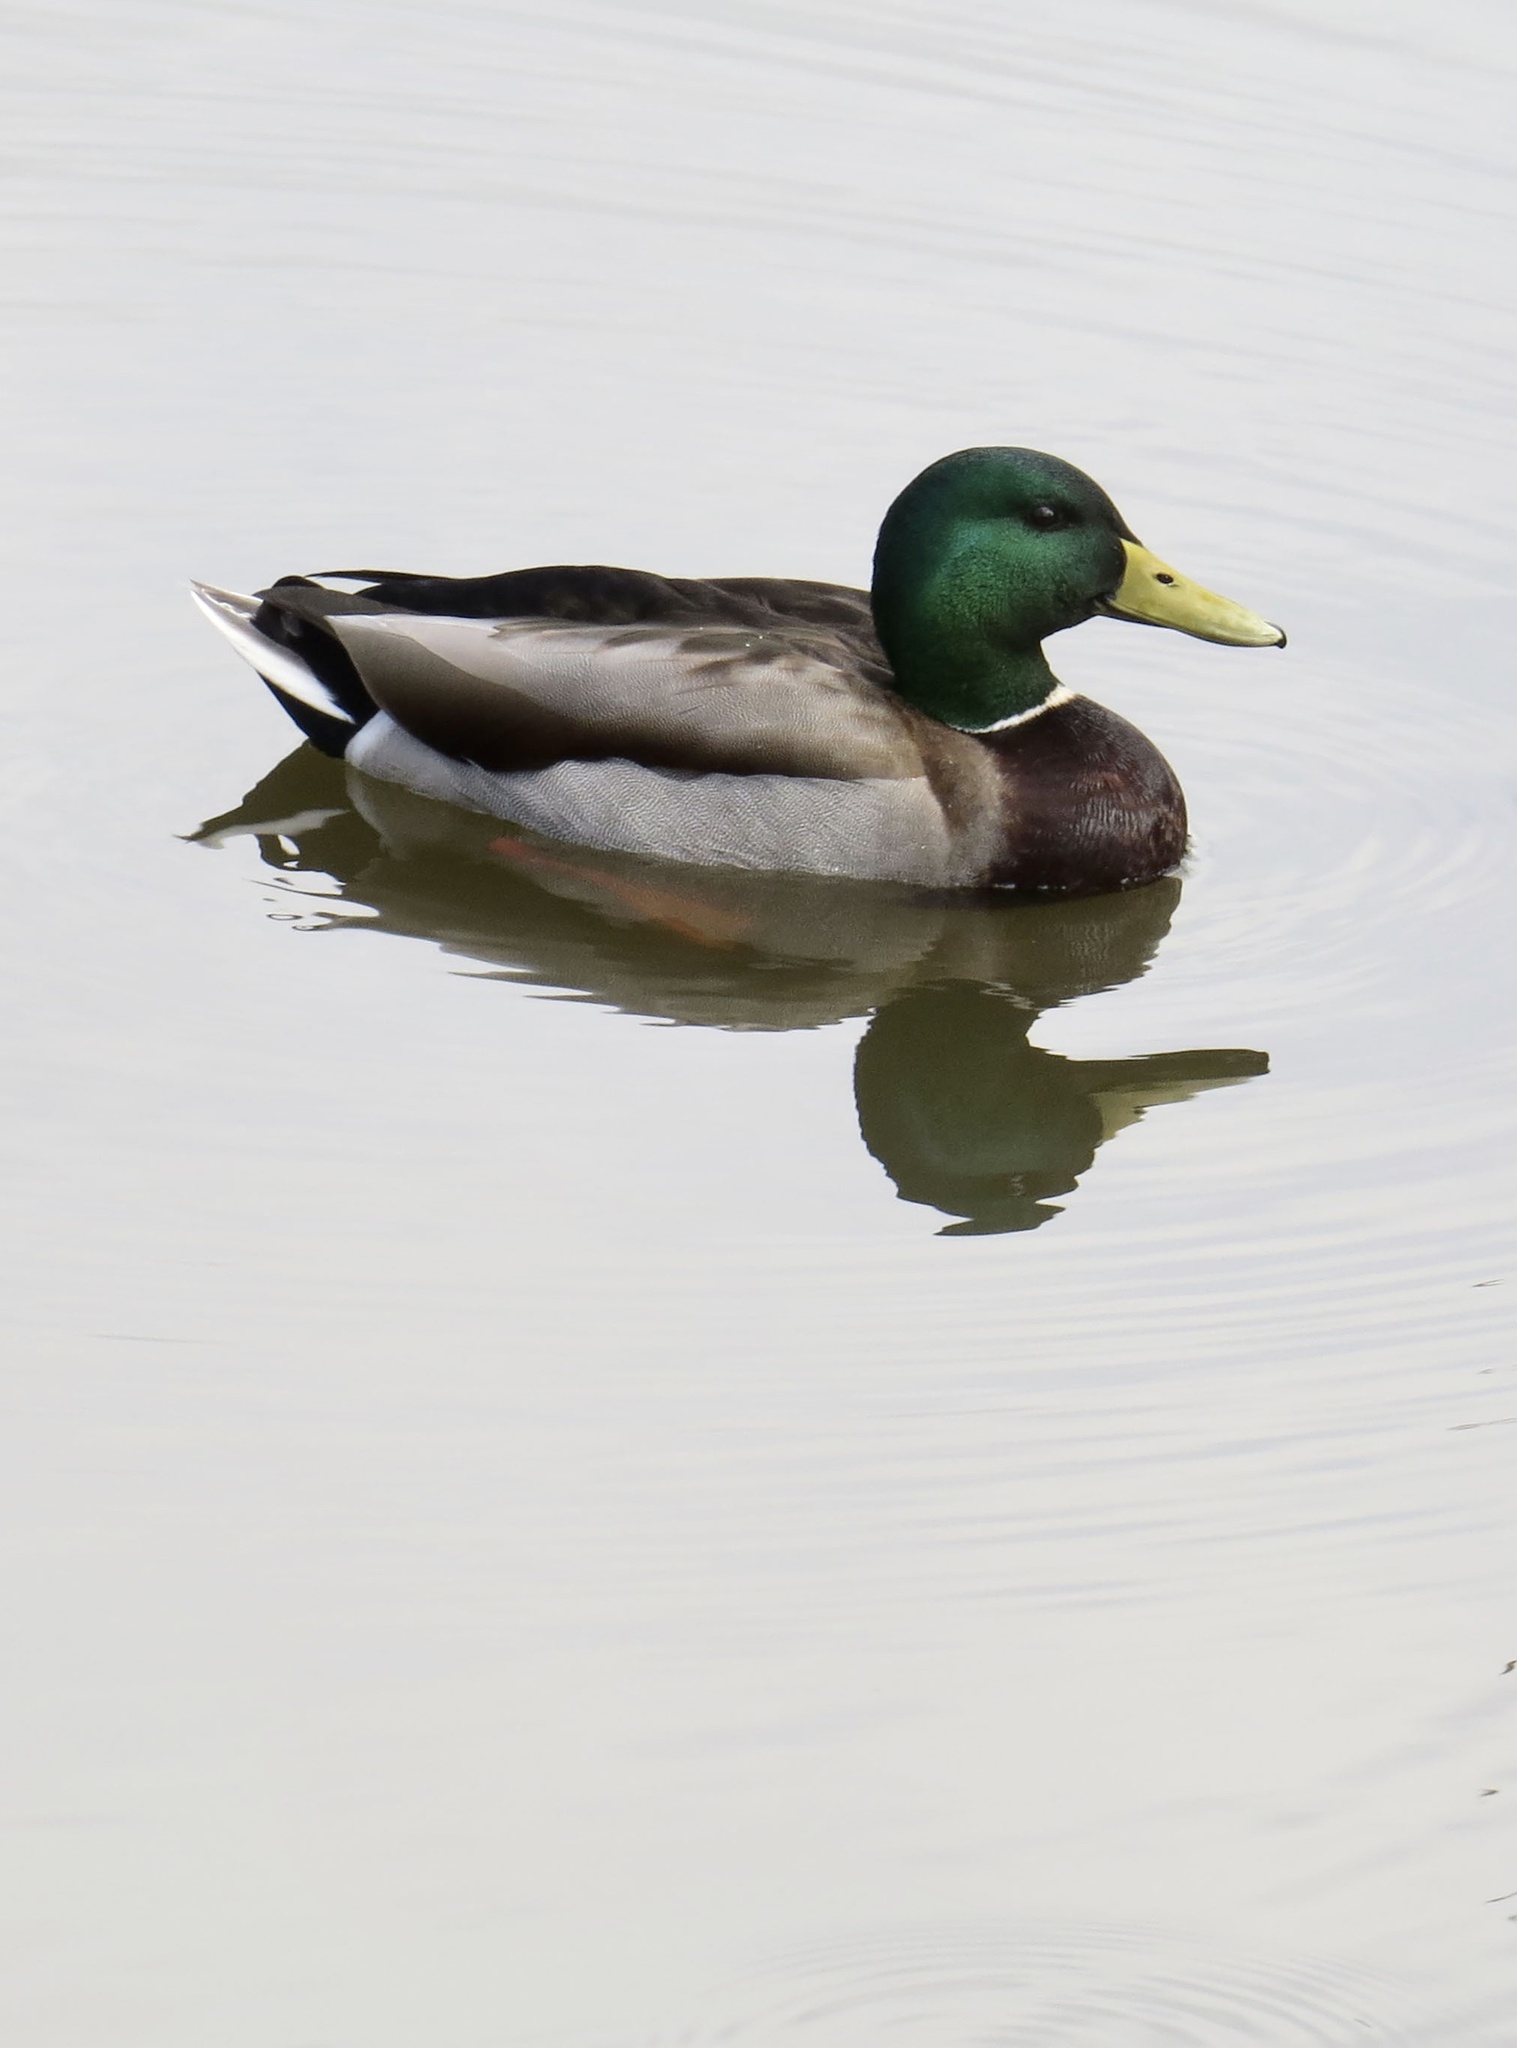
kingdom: Animalia
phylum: Chordata
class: Aves
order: Anseriformes
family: Anatidae
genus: Anas
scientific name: Anas platyrhynchos
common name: Mallard
